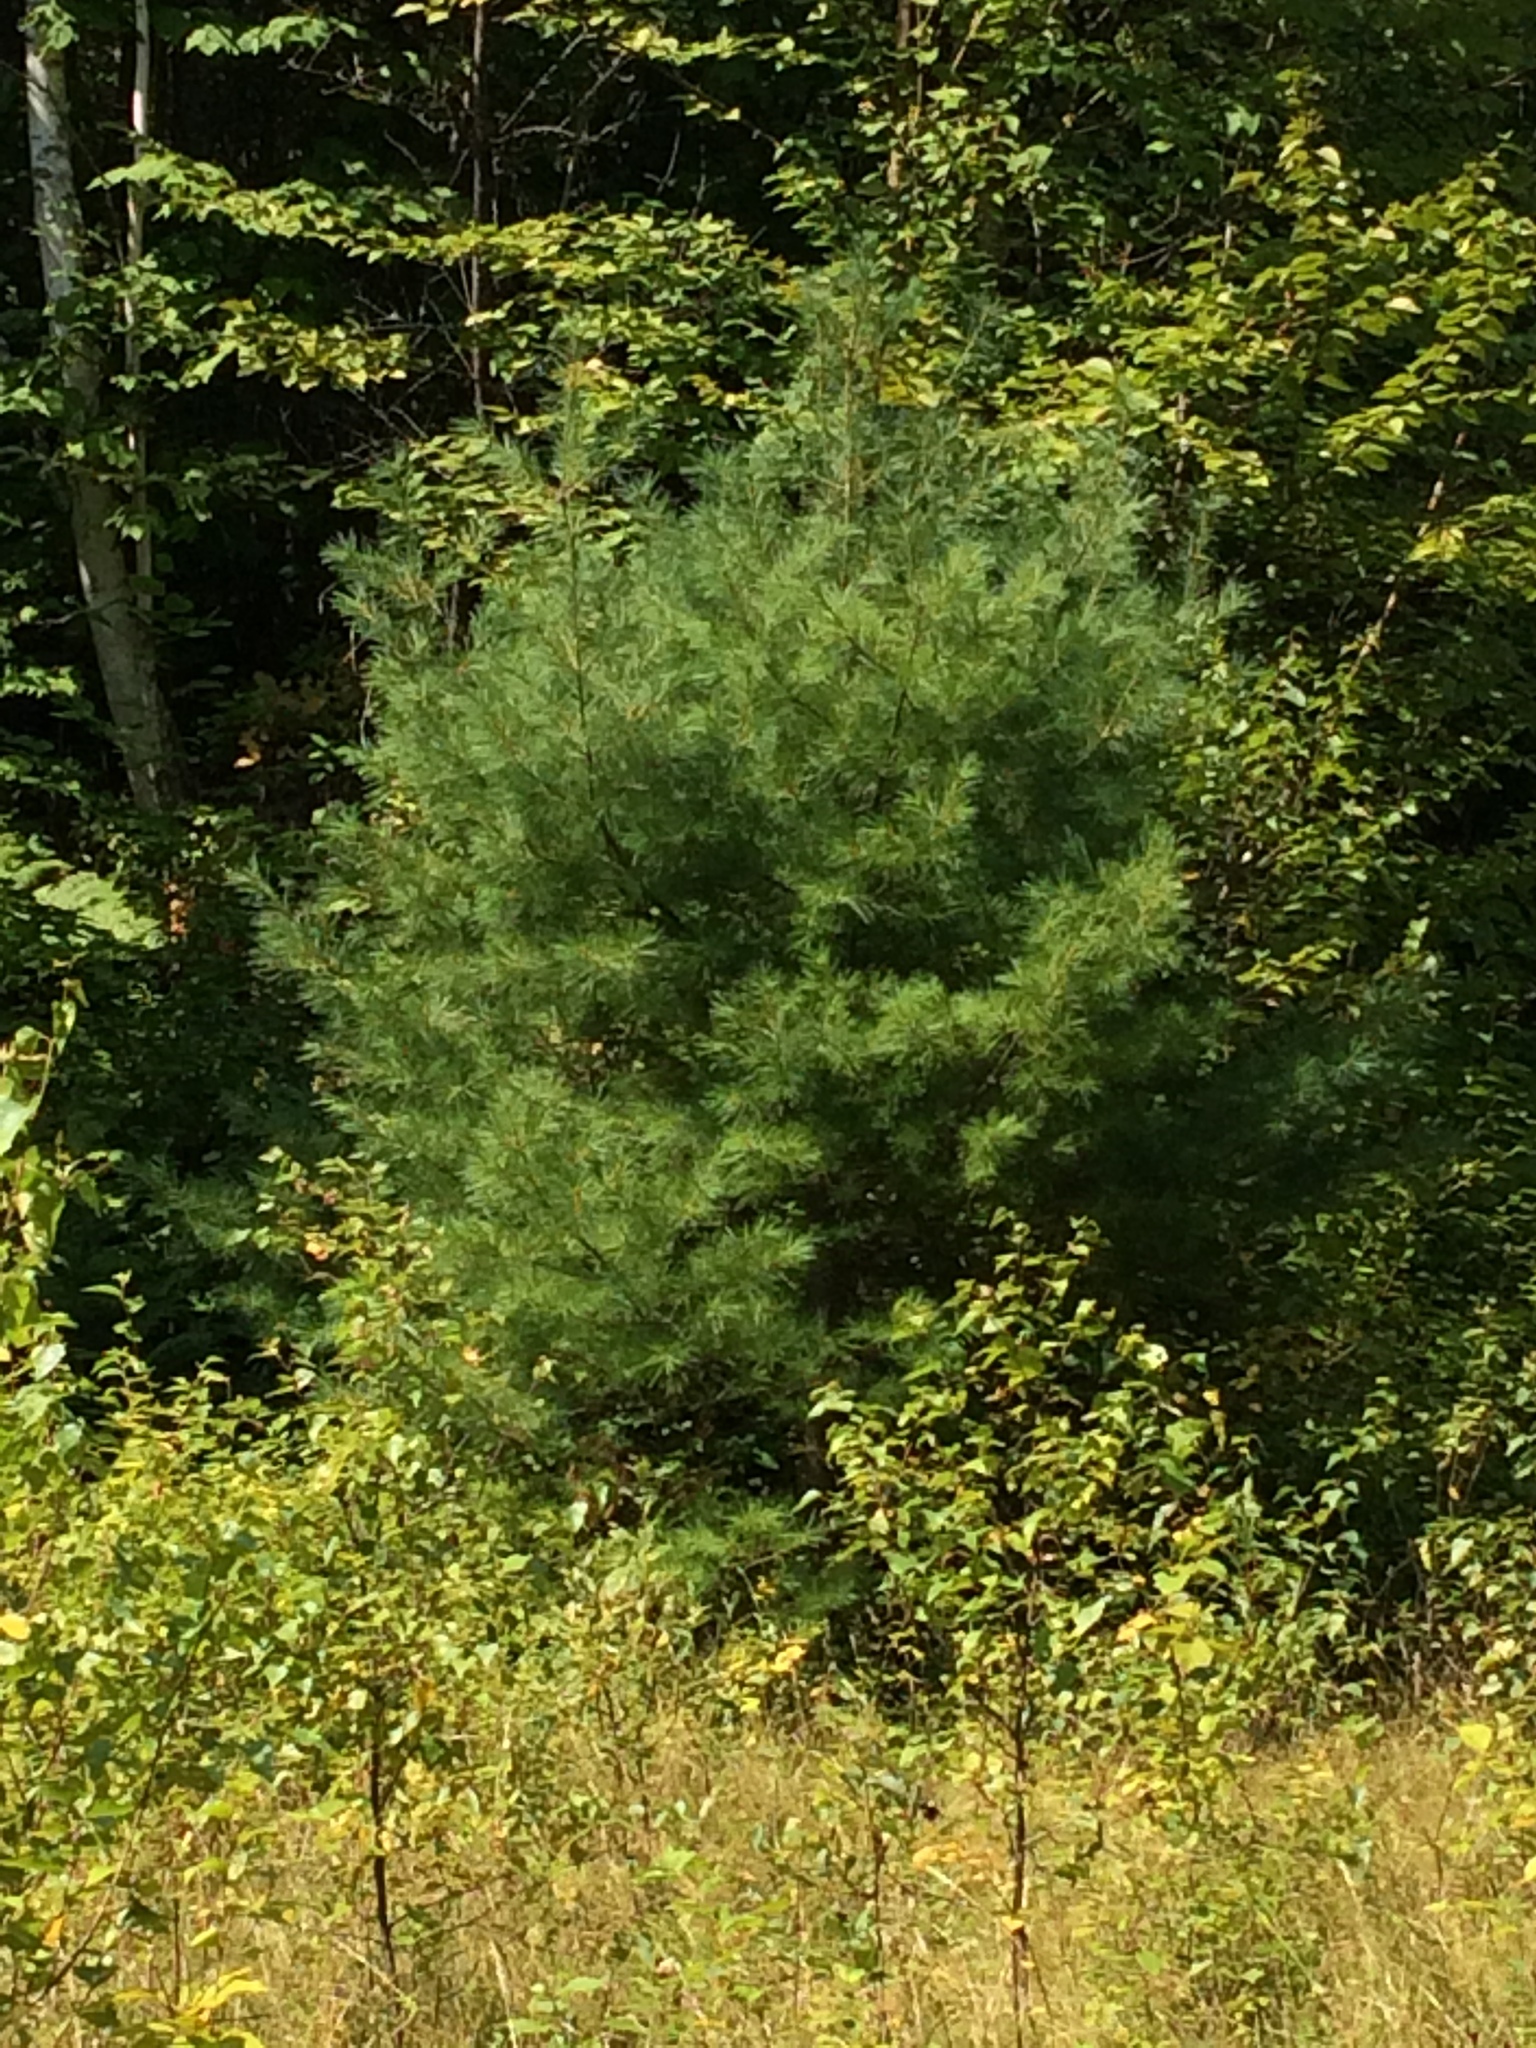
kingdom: Plantae
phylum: Tracheophyta
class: Pinopsida
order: Pinales
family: Pinaceae
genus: Pinus
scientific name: Pinus strobus
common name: Weymouth pine
